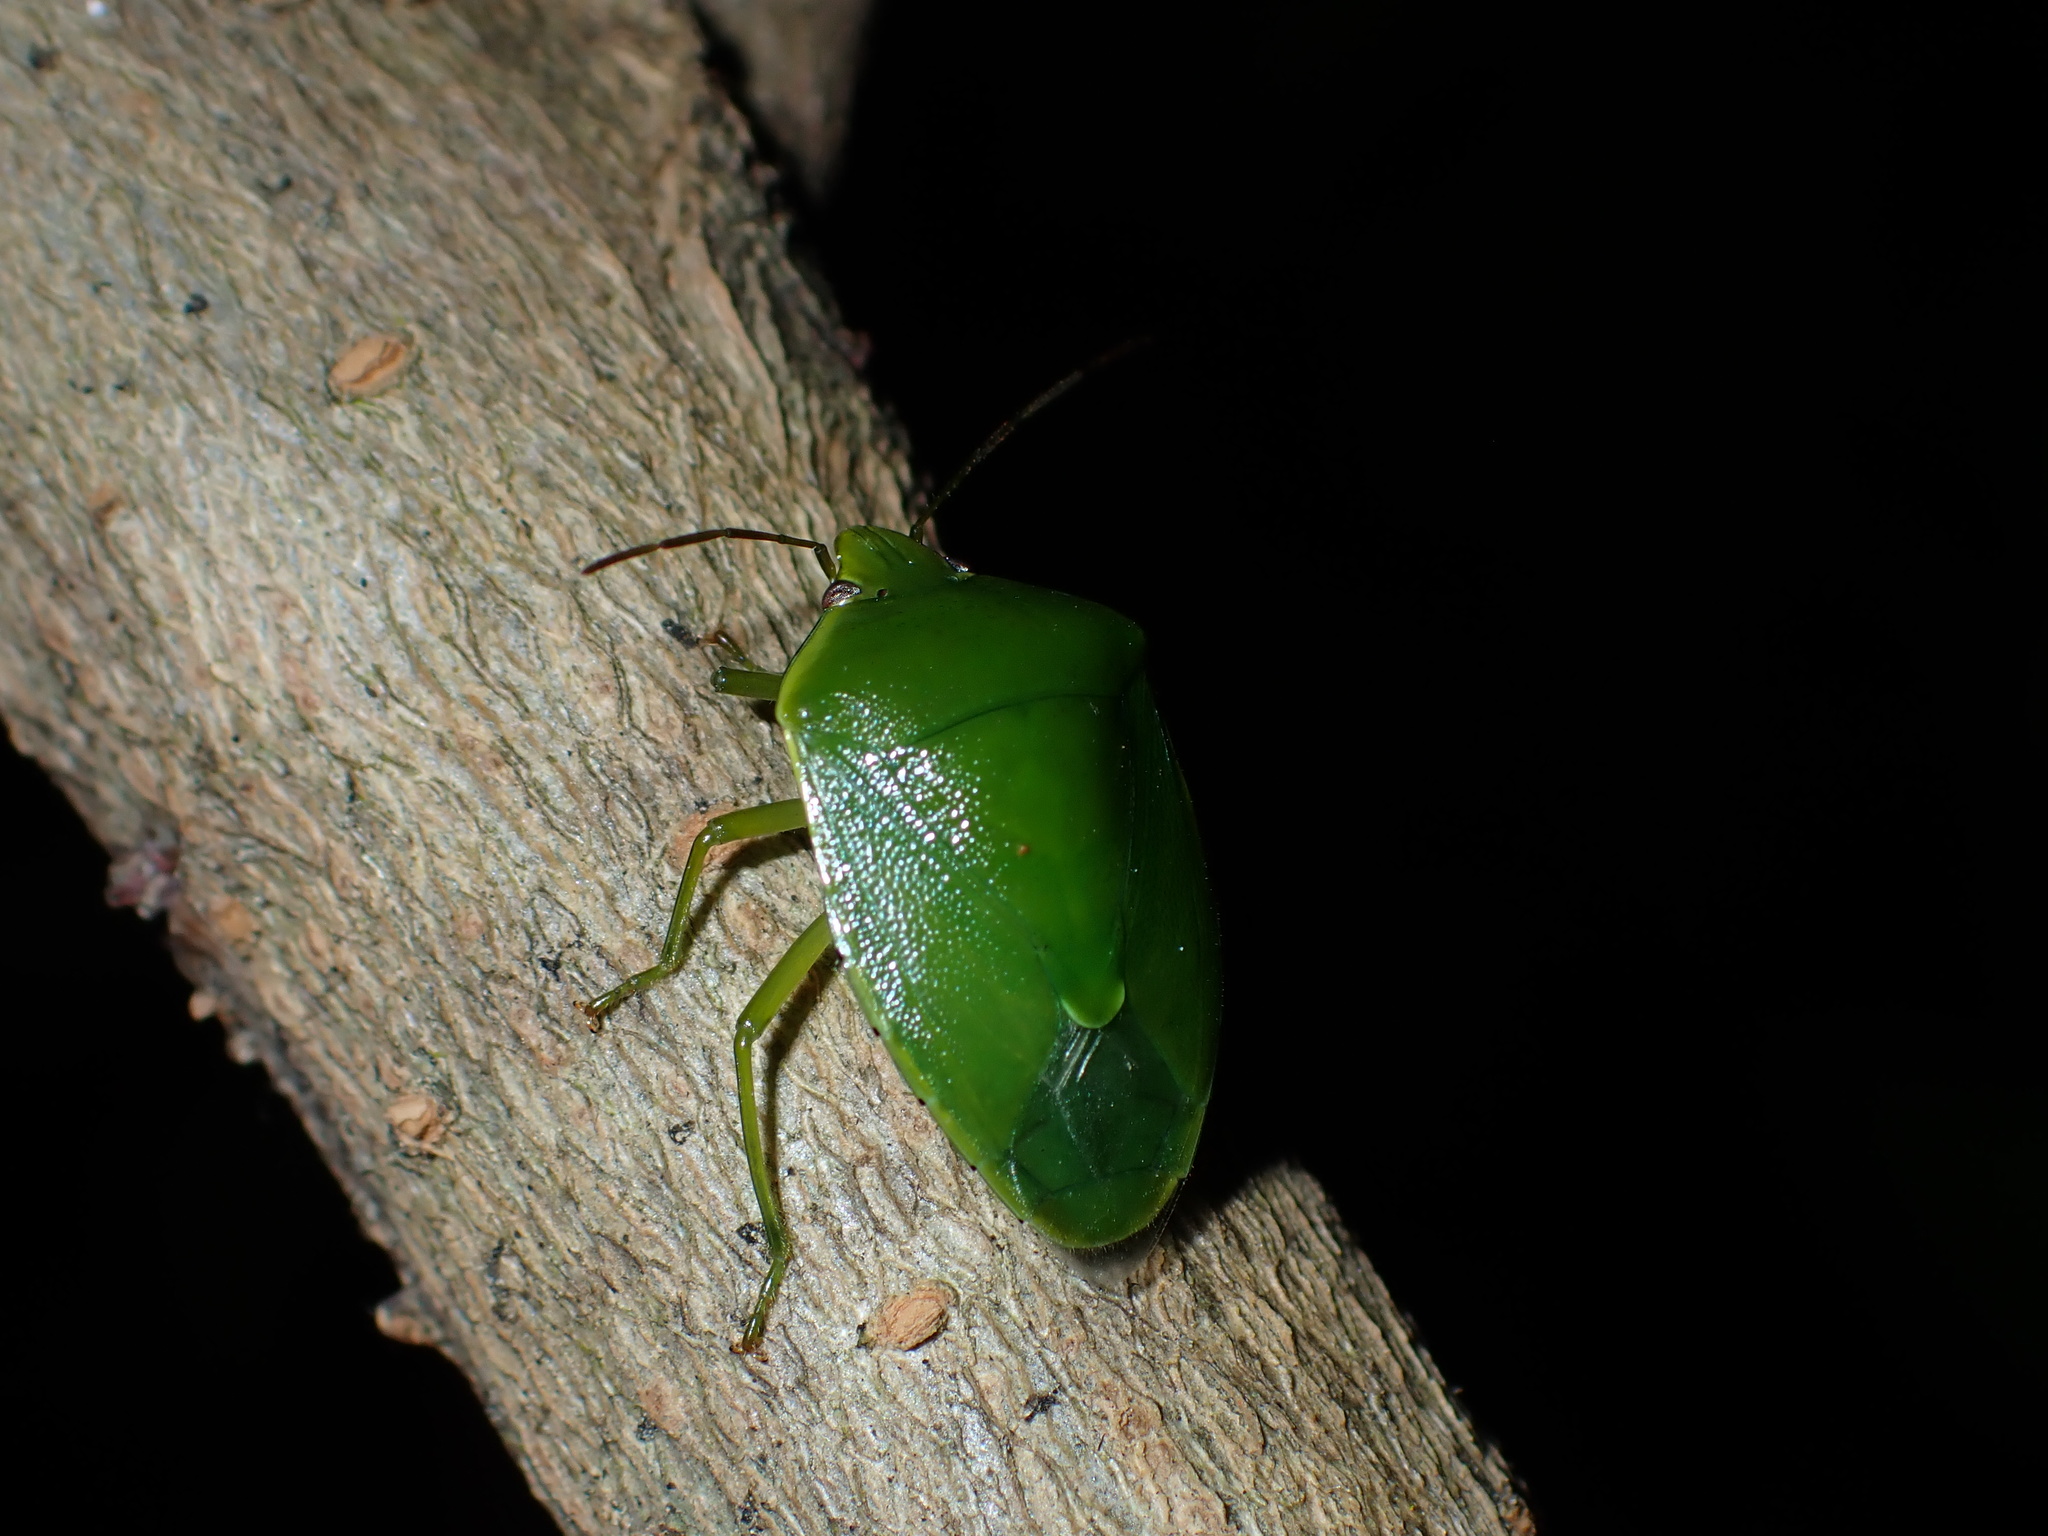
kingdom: Animalia
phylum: Arthropoda
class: Insecta
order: Hemiptera
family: Pentatomidae
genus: Glaucias
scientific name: Glaucias amyota
